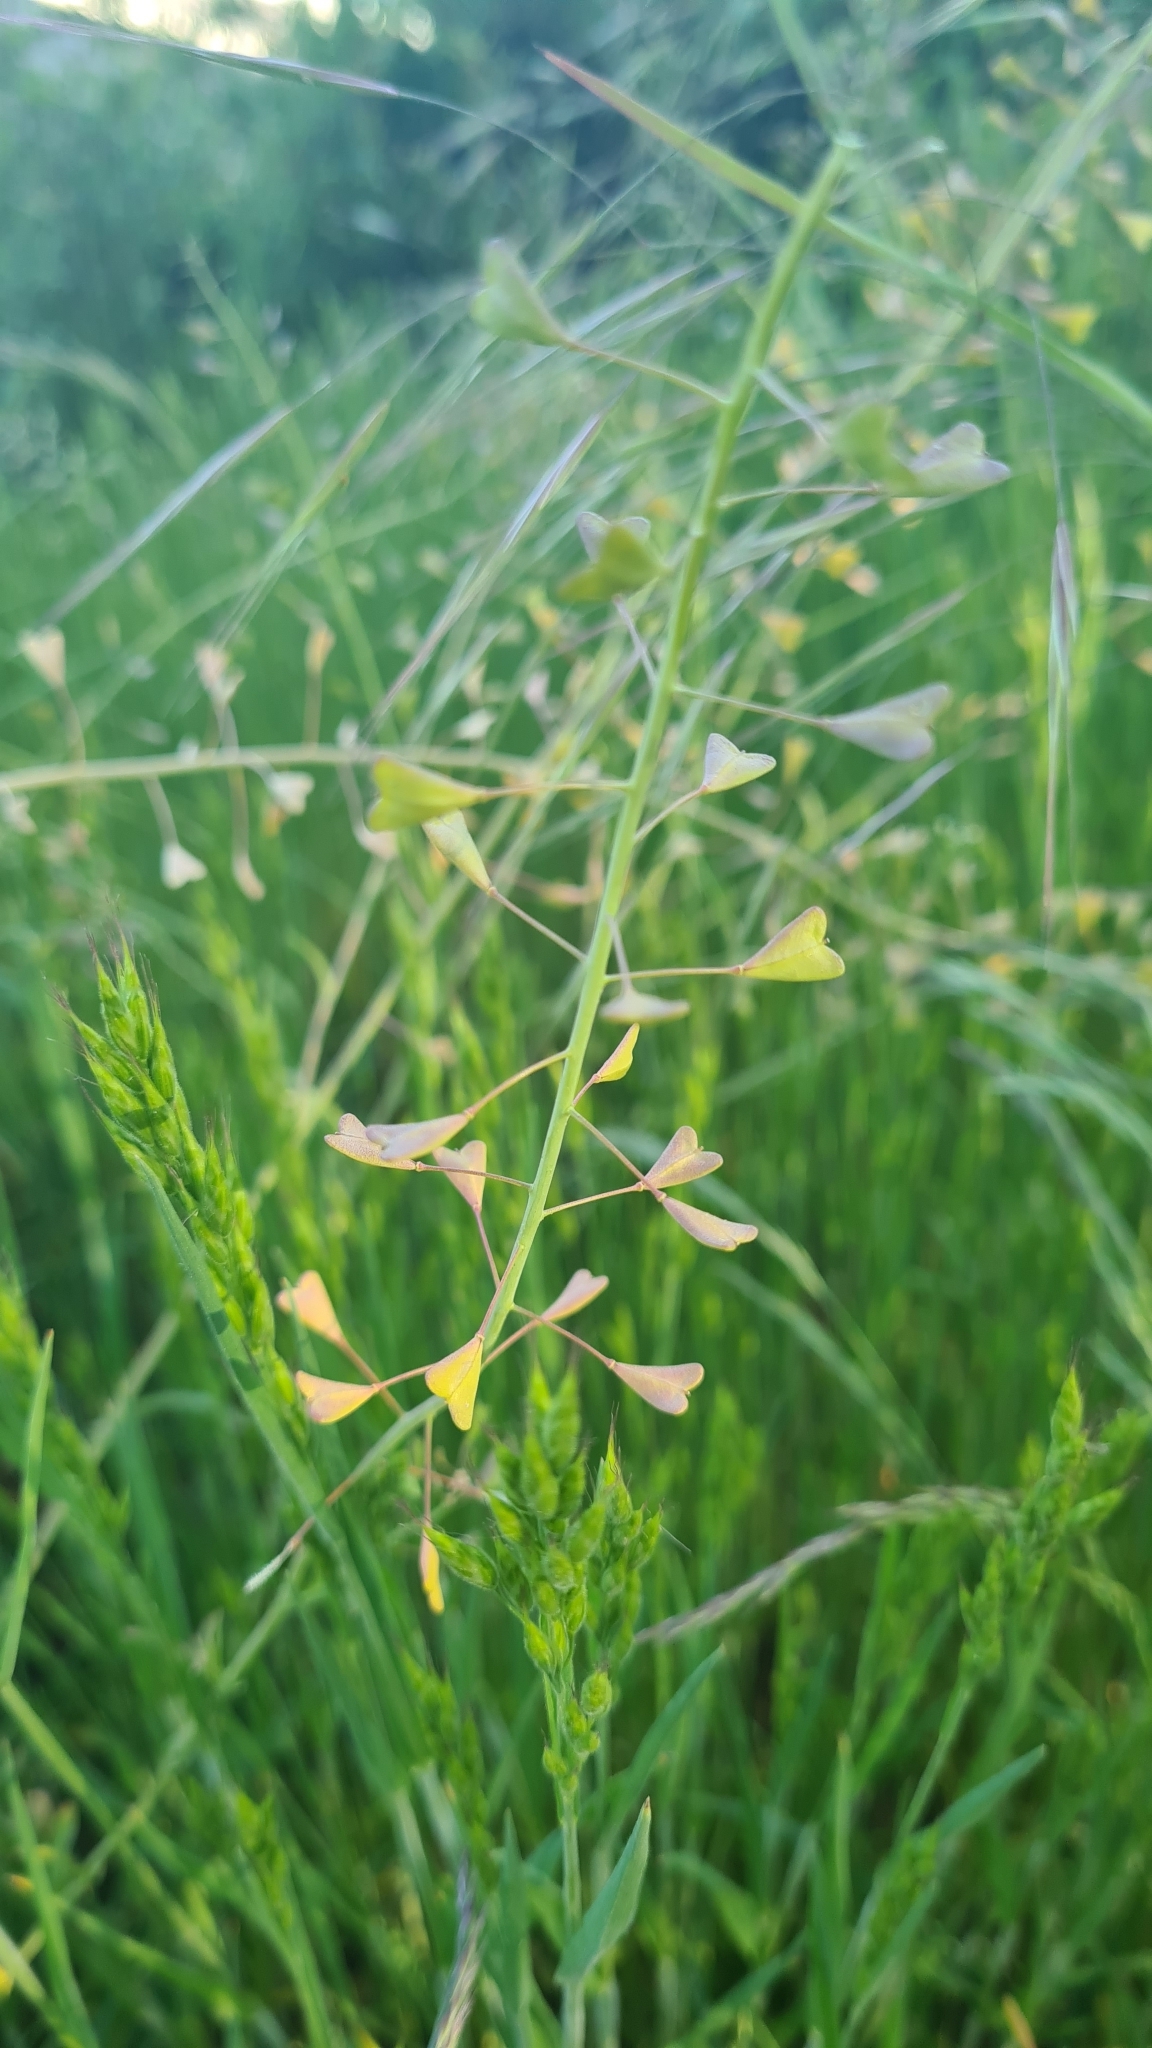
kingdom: Plantae
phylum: Tracheophyta
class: Magnoliopsida
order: Brassicales
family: Brassicaceae
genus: Capsella
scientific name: Capsella bursa-pastoris
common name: Shepherd's purse
